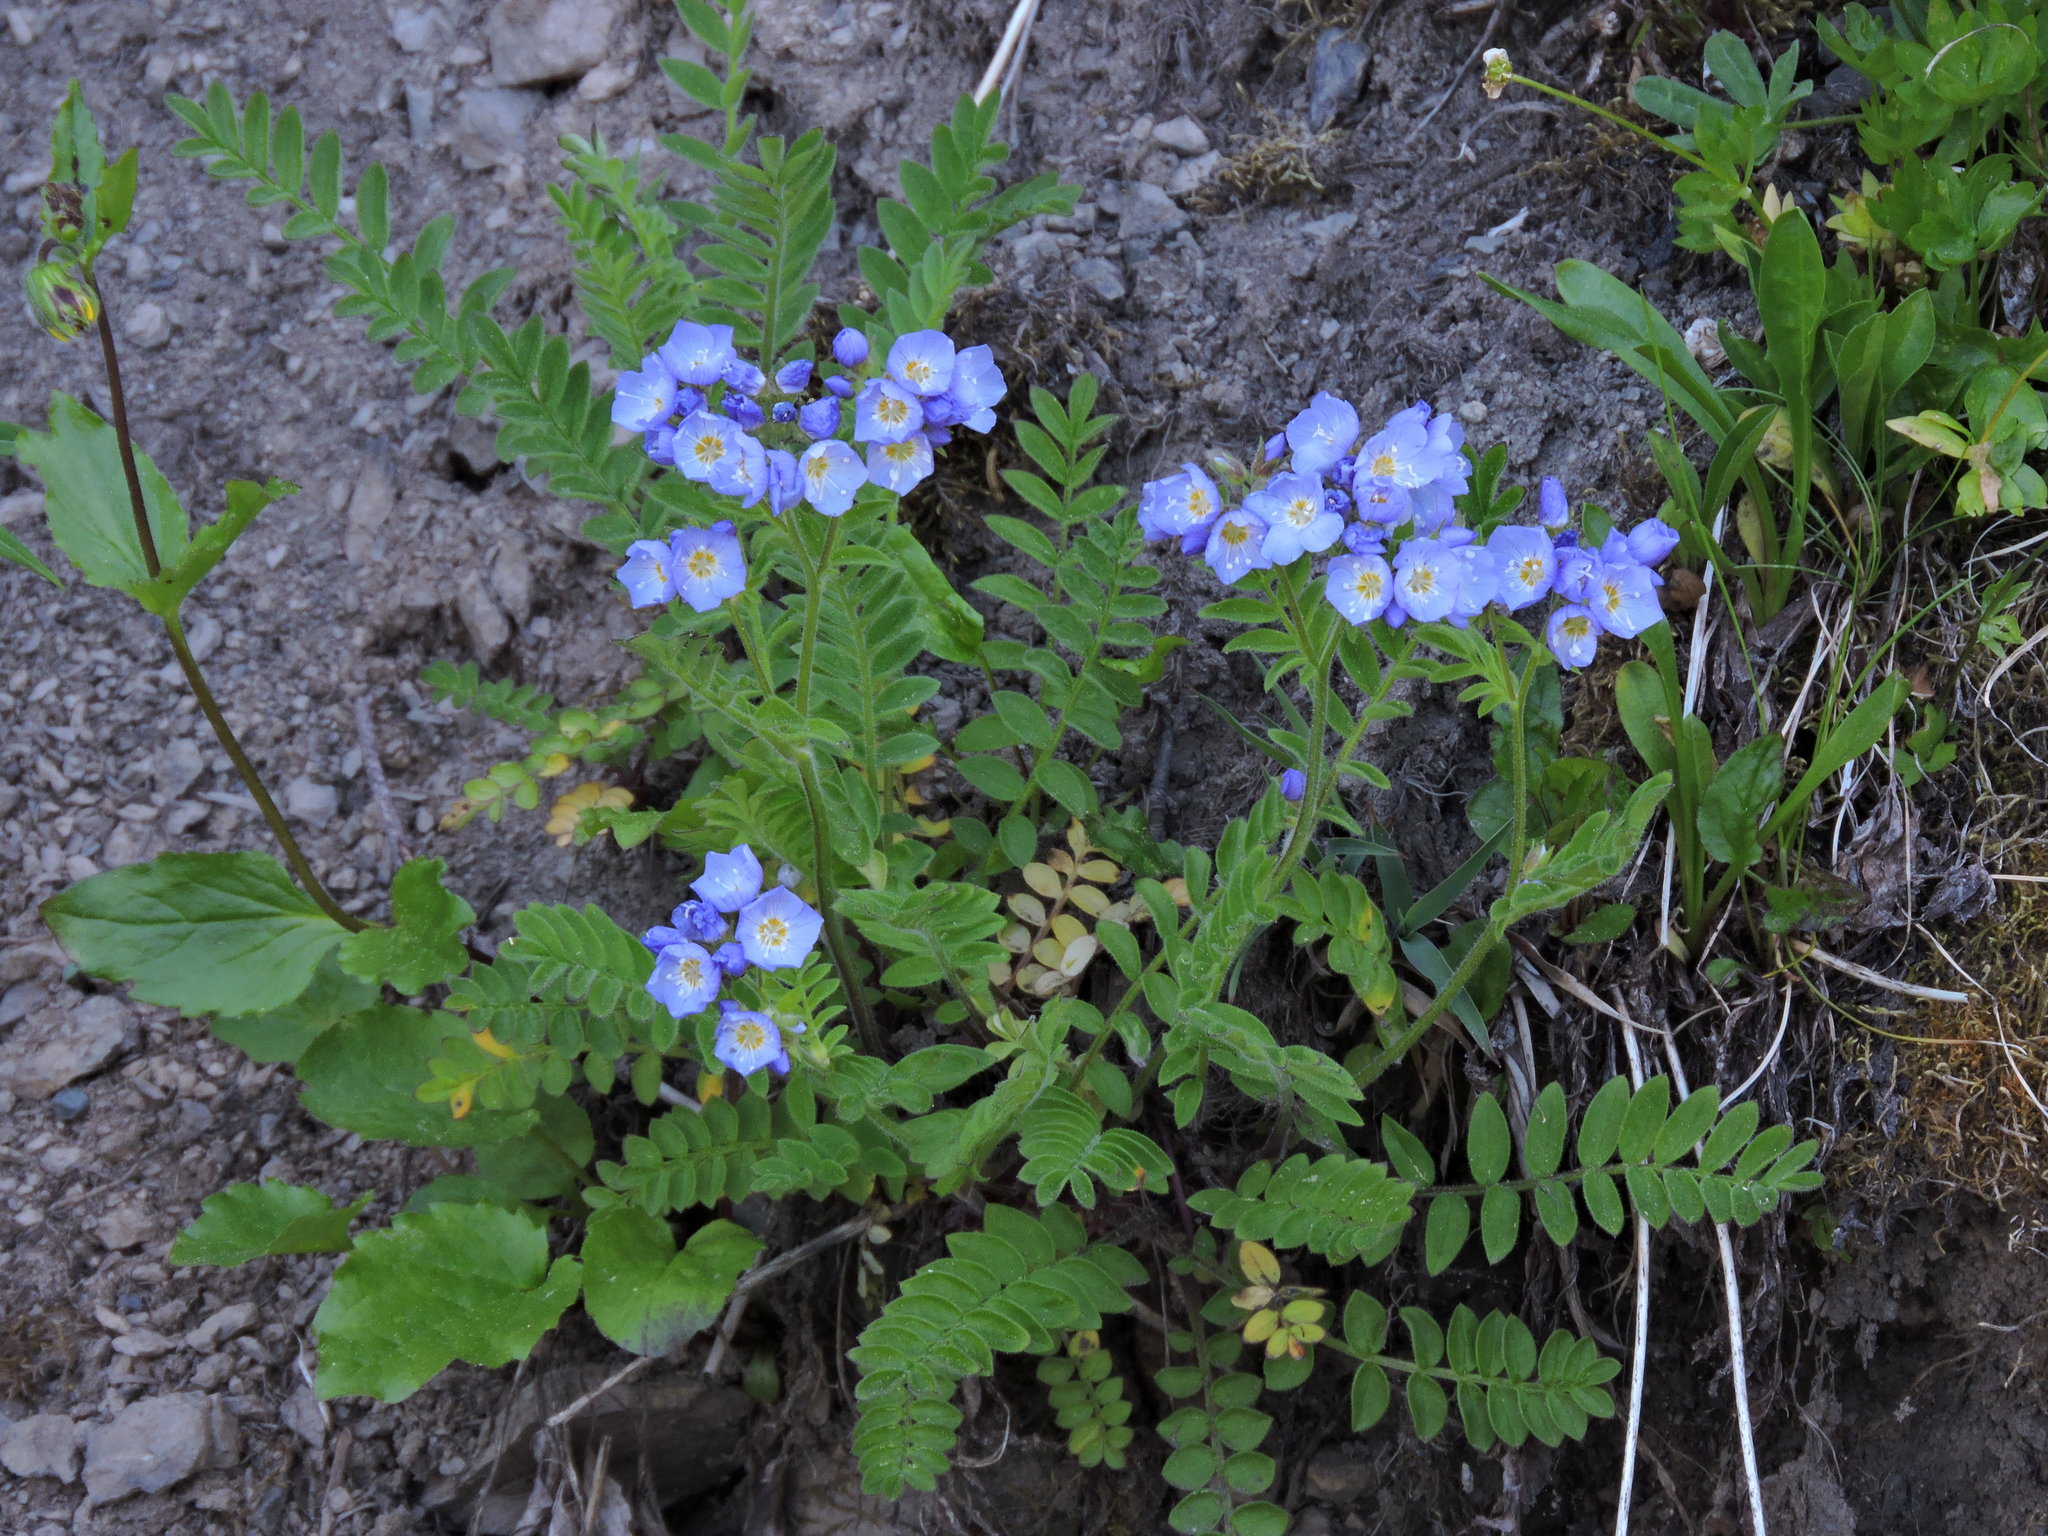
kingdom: Plantae
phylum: Tracheophyta
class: Magnoliopsida
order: Ericales
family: Polemoniaceae
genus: Polemonium
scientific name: Polemonium californicum
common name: California jacob's ladder
